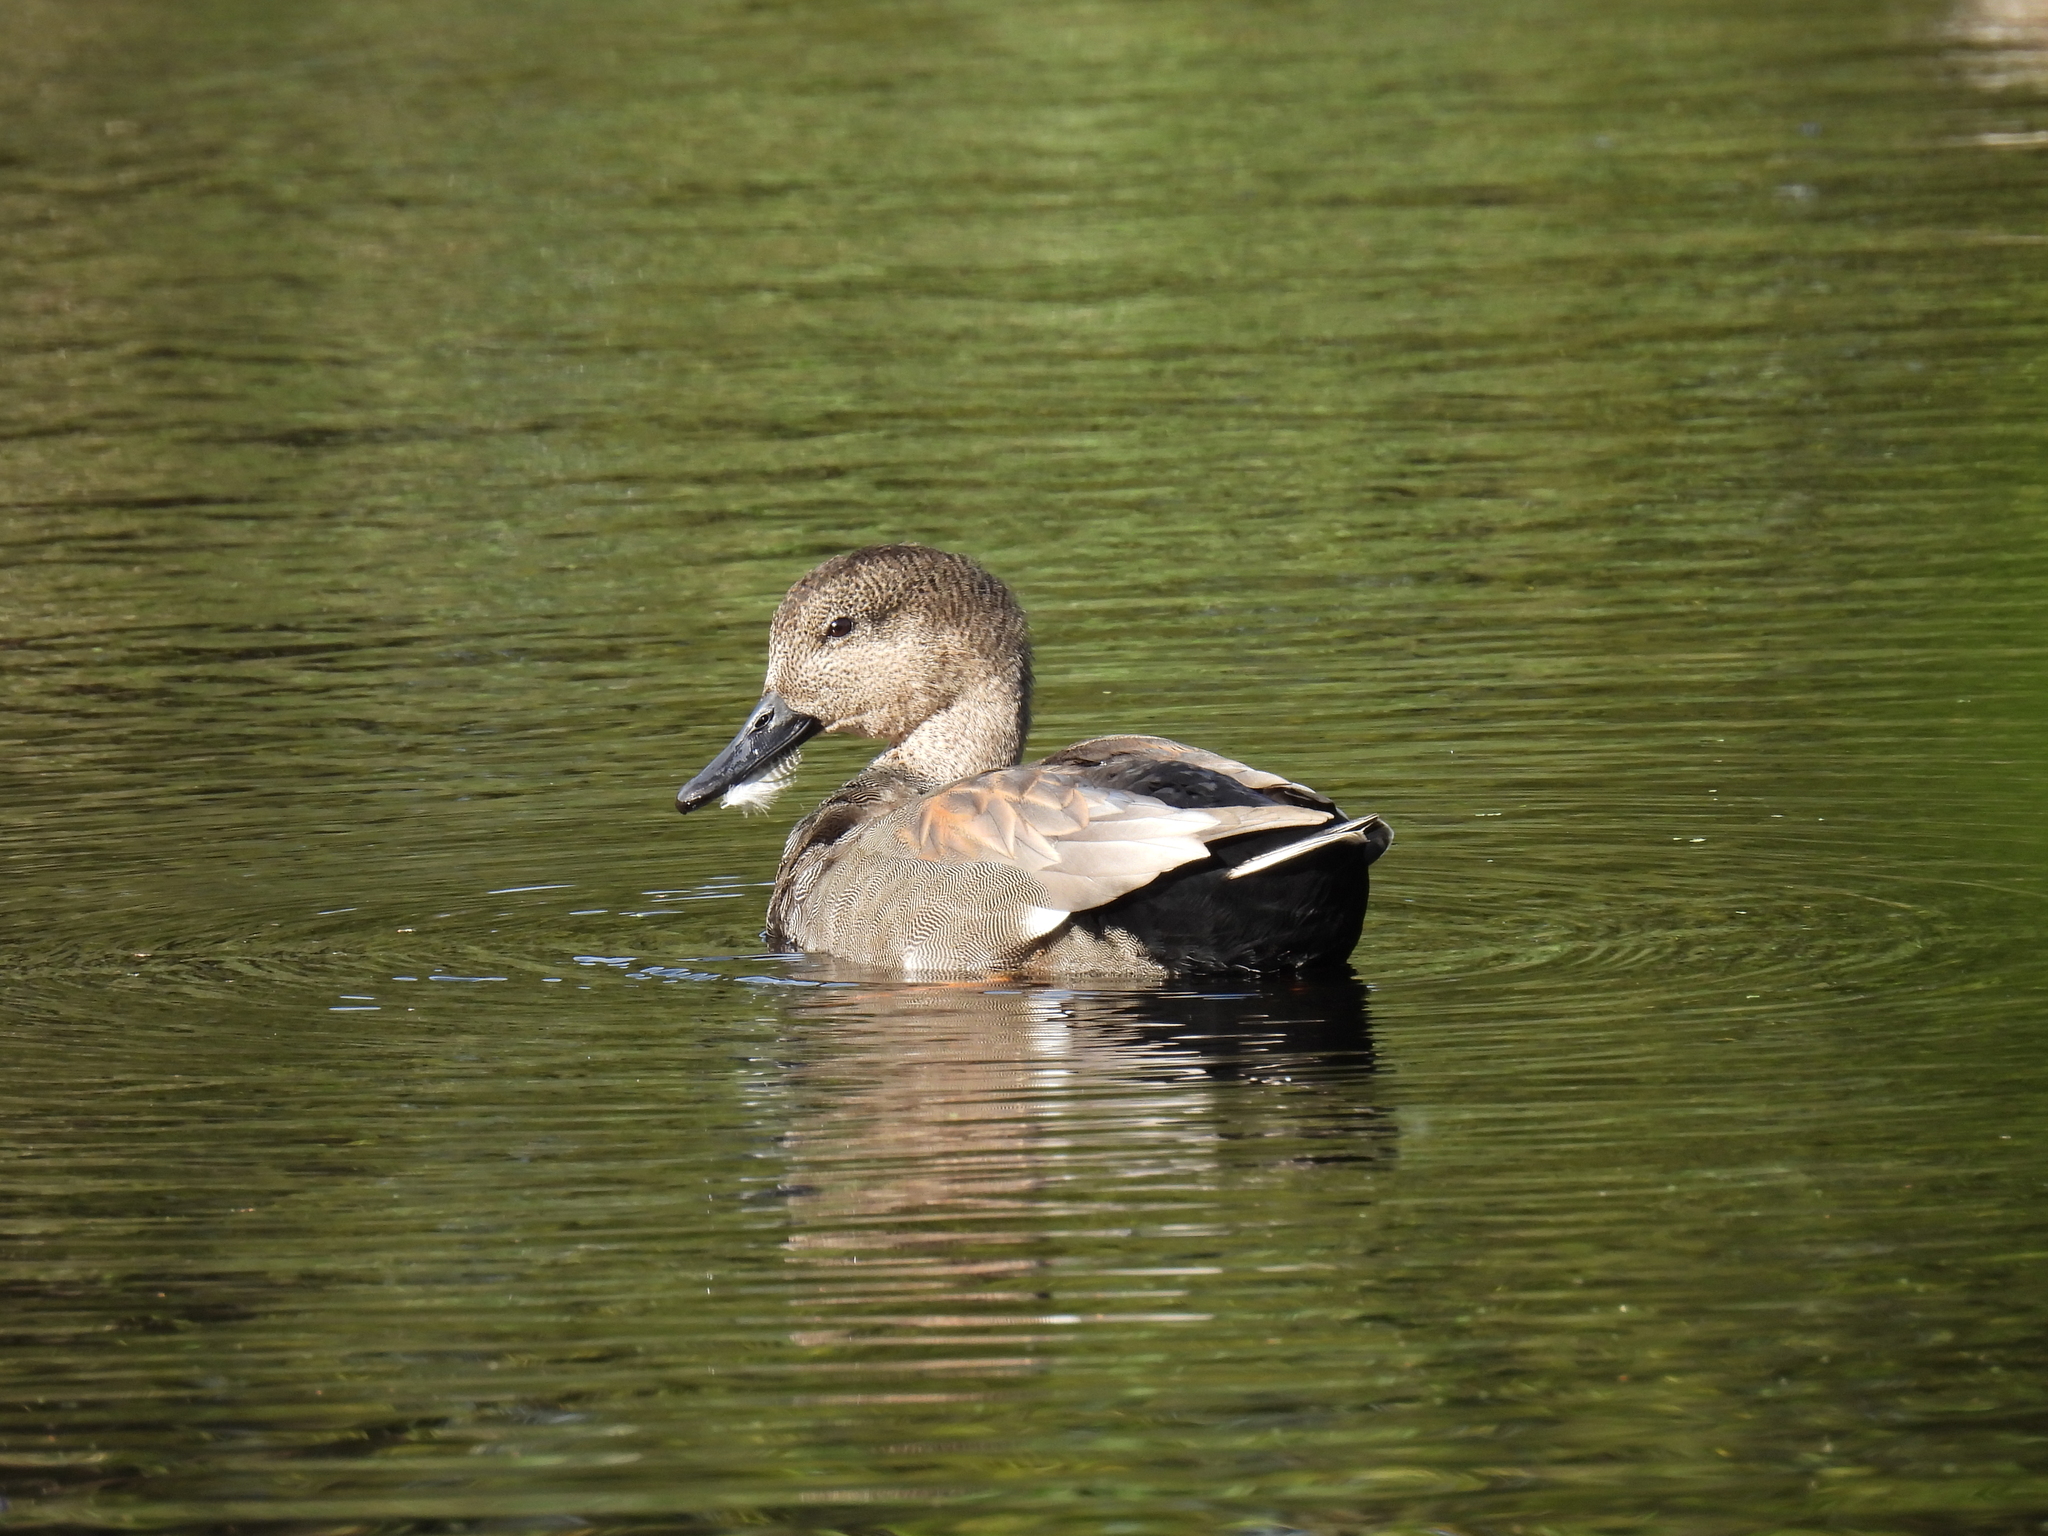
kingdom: Animalia
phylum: Chordata
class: Aves
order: Anseriformes
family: Anatidae
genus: Mareca
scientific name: Mareca strepera
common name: Gadwall
